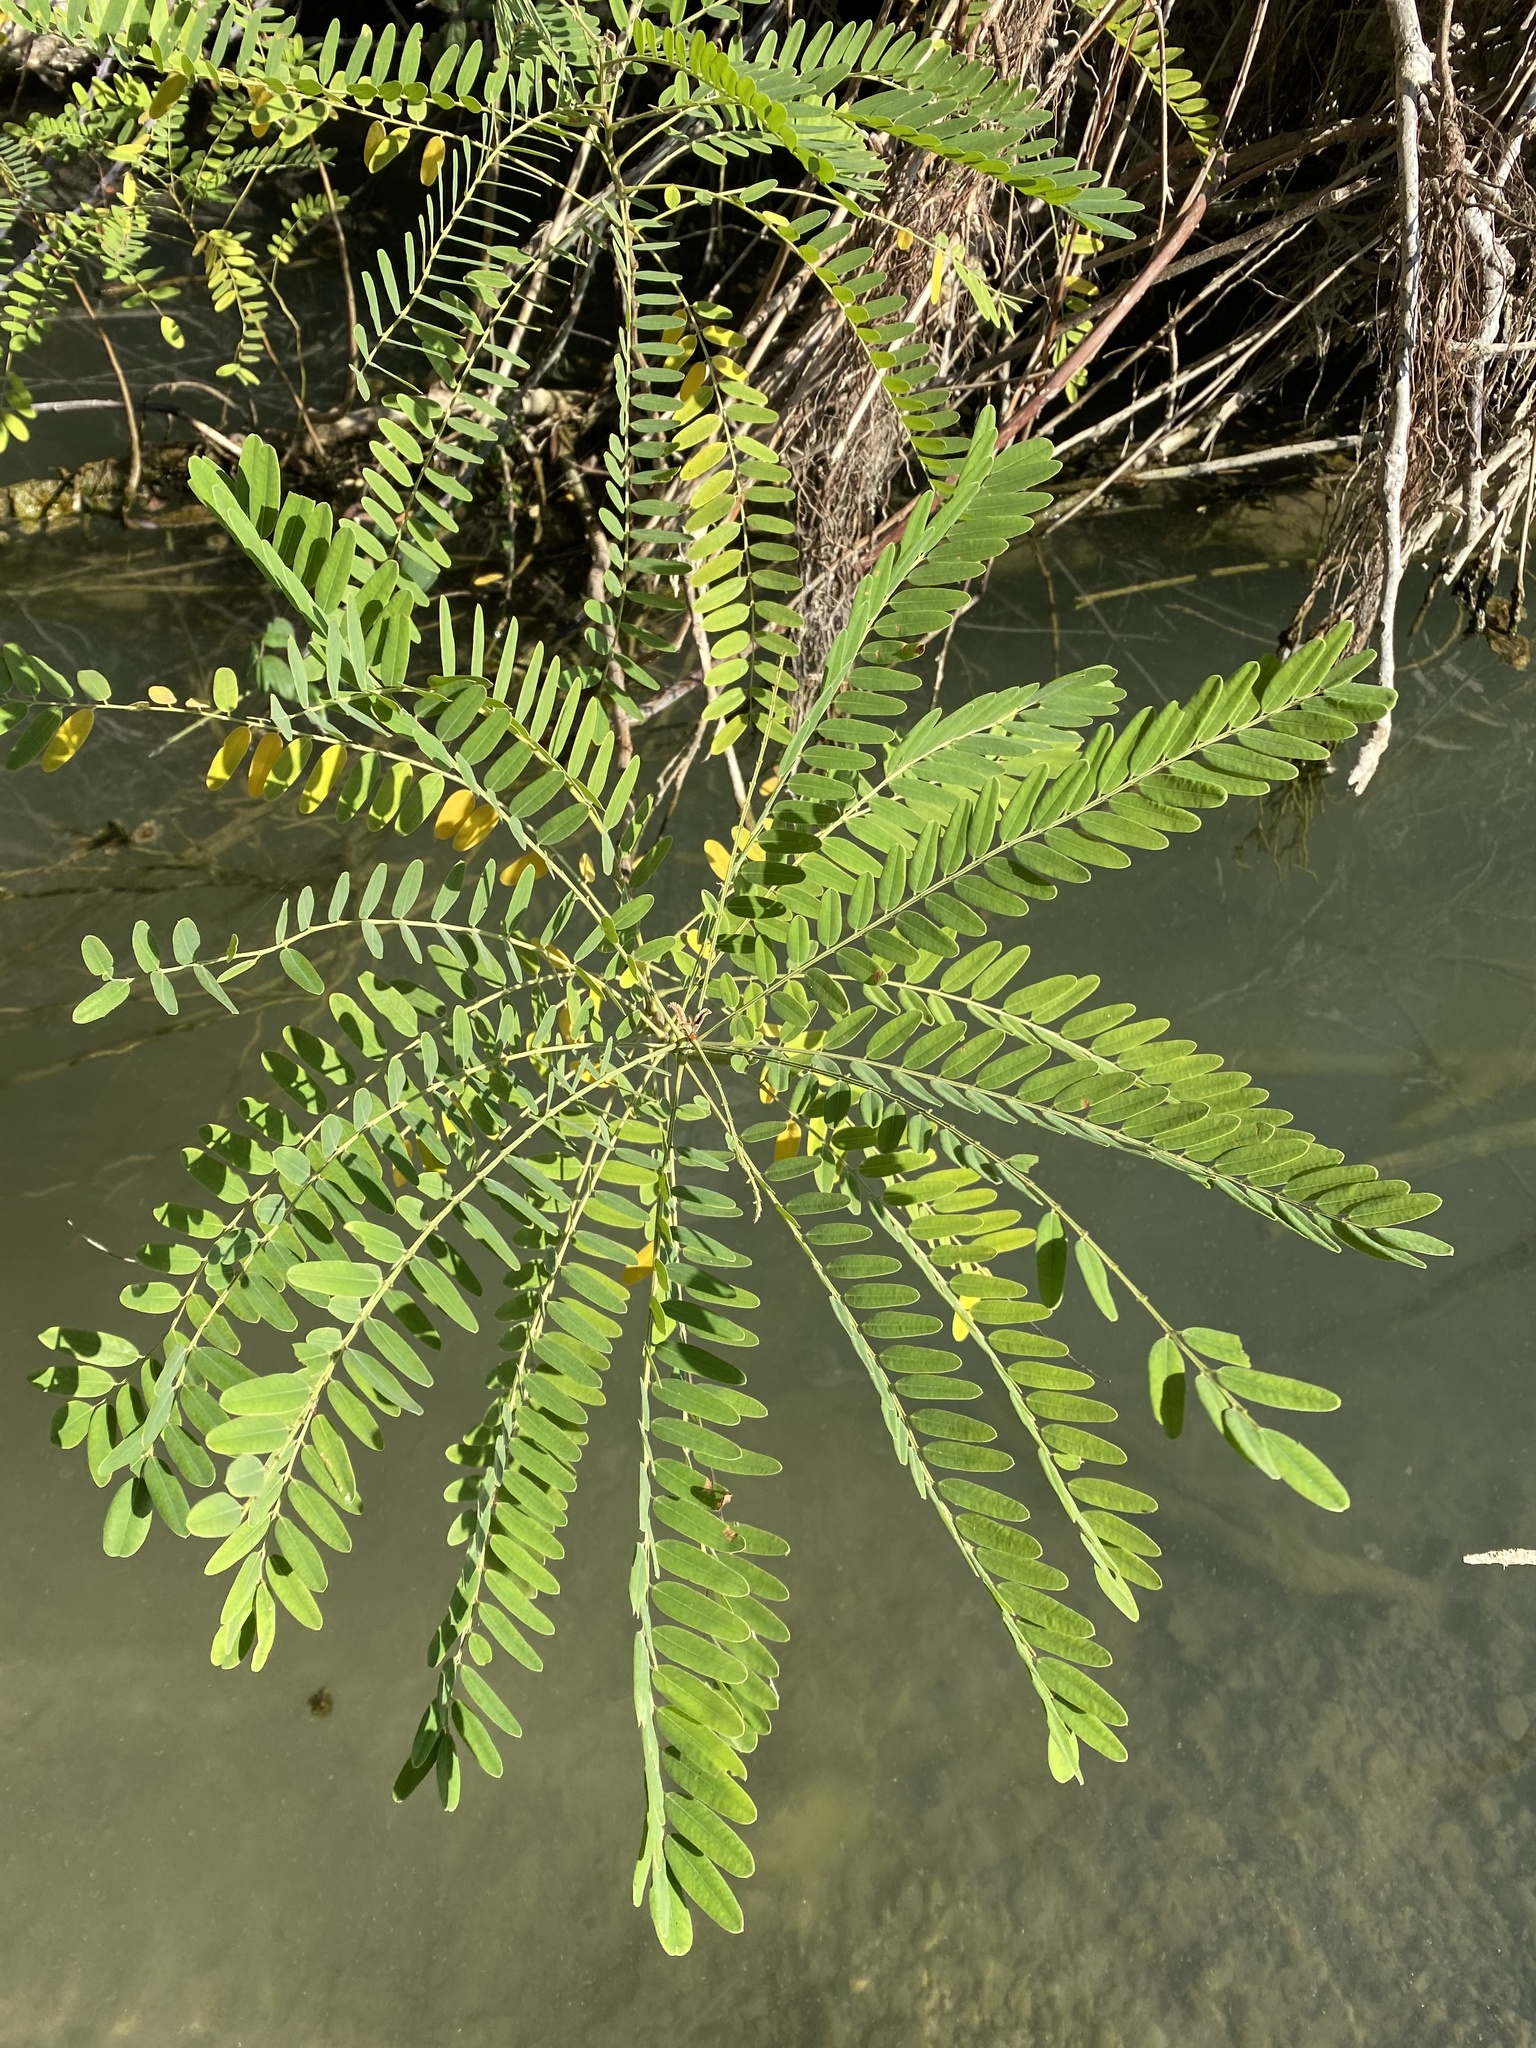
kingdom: Plantae
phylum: Tracheophyta
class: Magnoliopsida
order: Fabales
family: Fabaceae
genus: Amorpha
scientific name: Amorpha fruticosa
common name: False indigo
